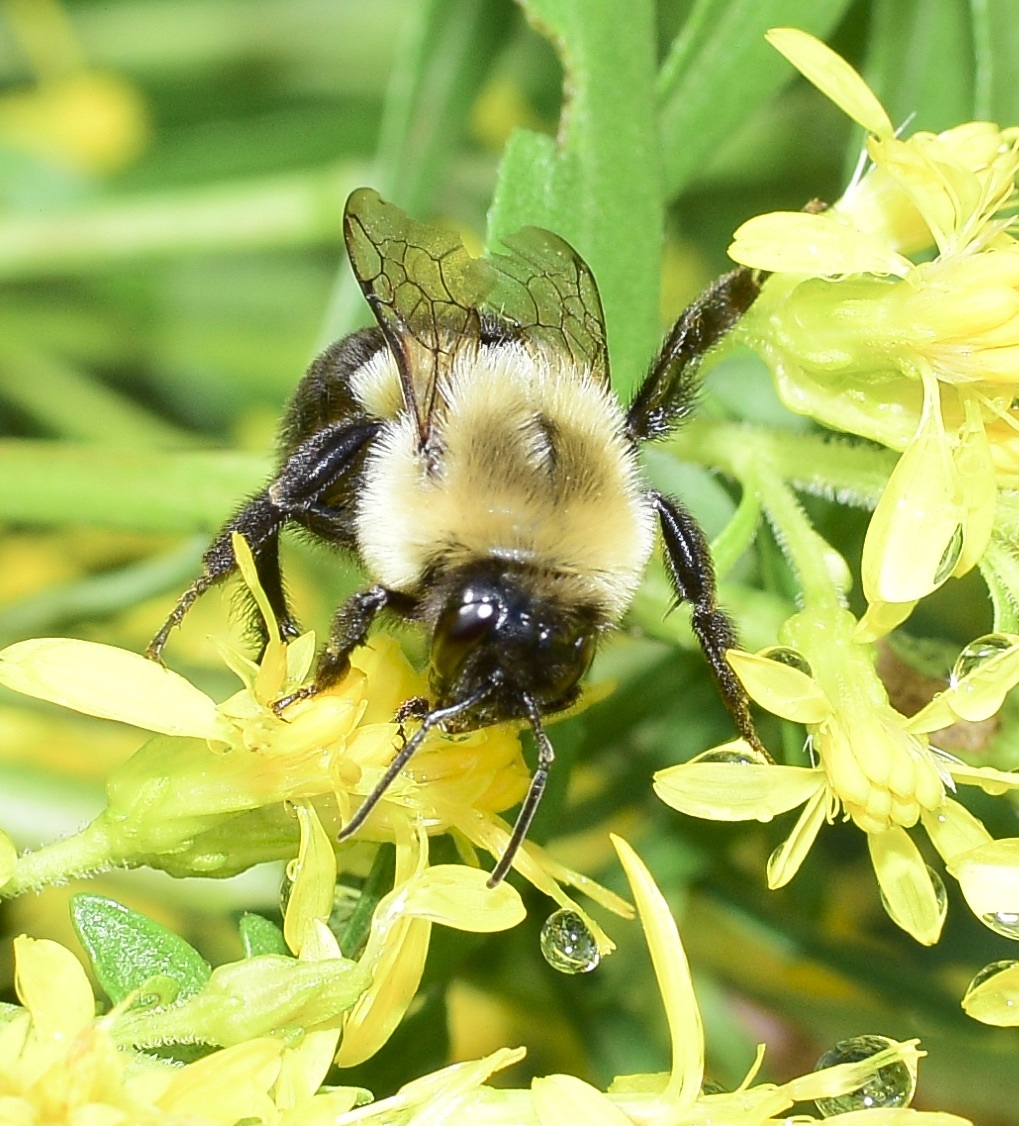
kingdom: Animalia
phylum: Arthropoda
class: Insecta
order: Hymenoptera
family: Apidae
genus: Bombus
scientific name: Bombus impatiens
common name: Common eastern bumble bee
